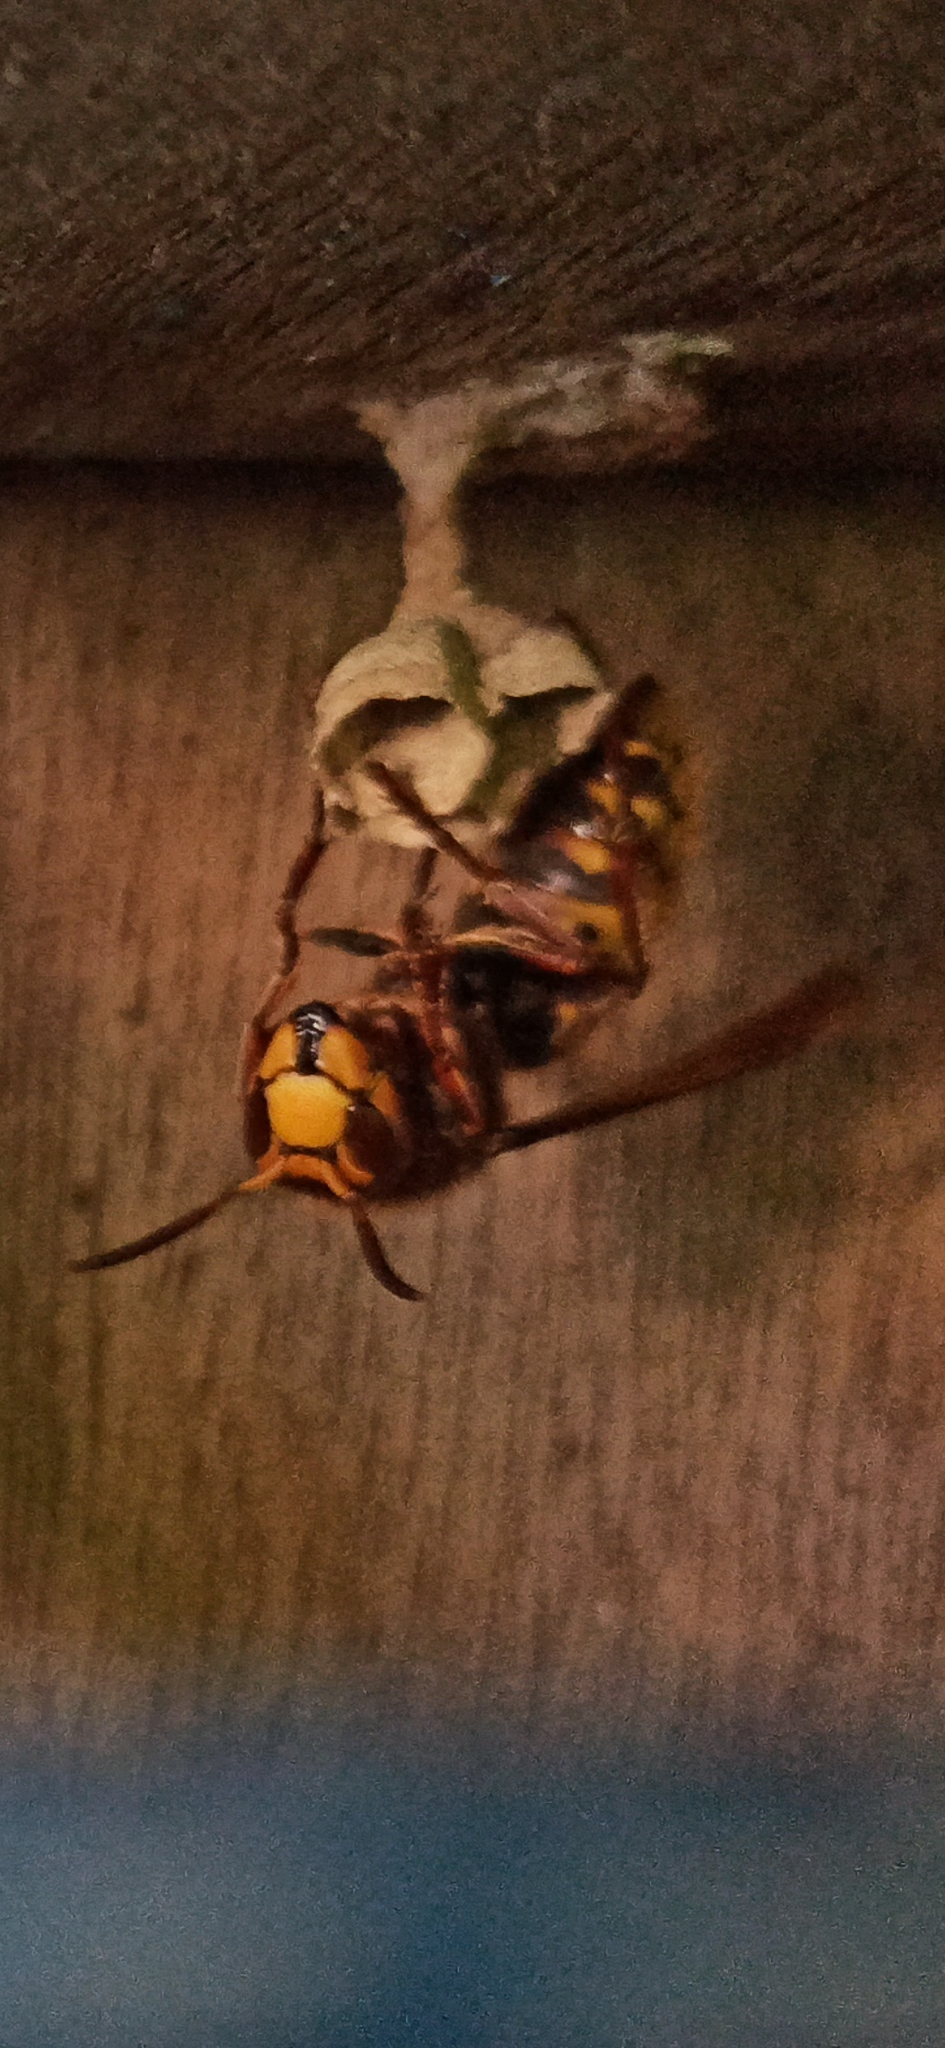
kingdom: Animalia
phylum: Arthropoda
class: Insecta
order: Hymenoptera
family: Vespidae
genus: Vespa
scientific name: Vespa crabro
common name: Hornet
